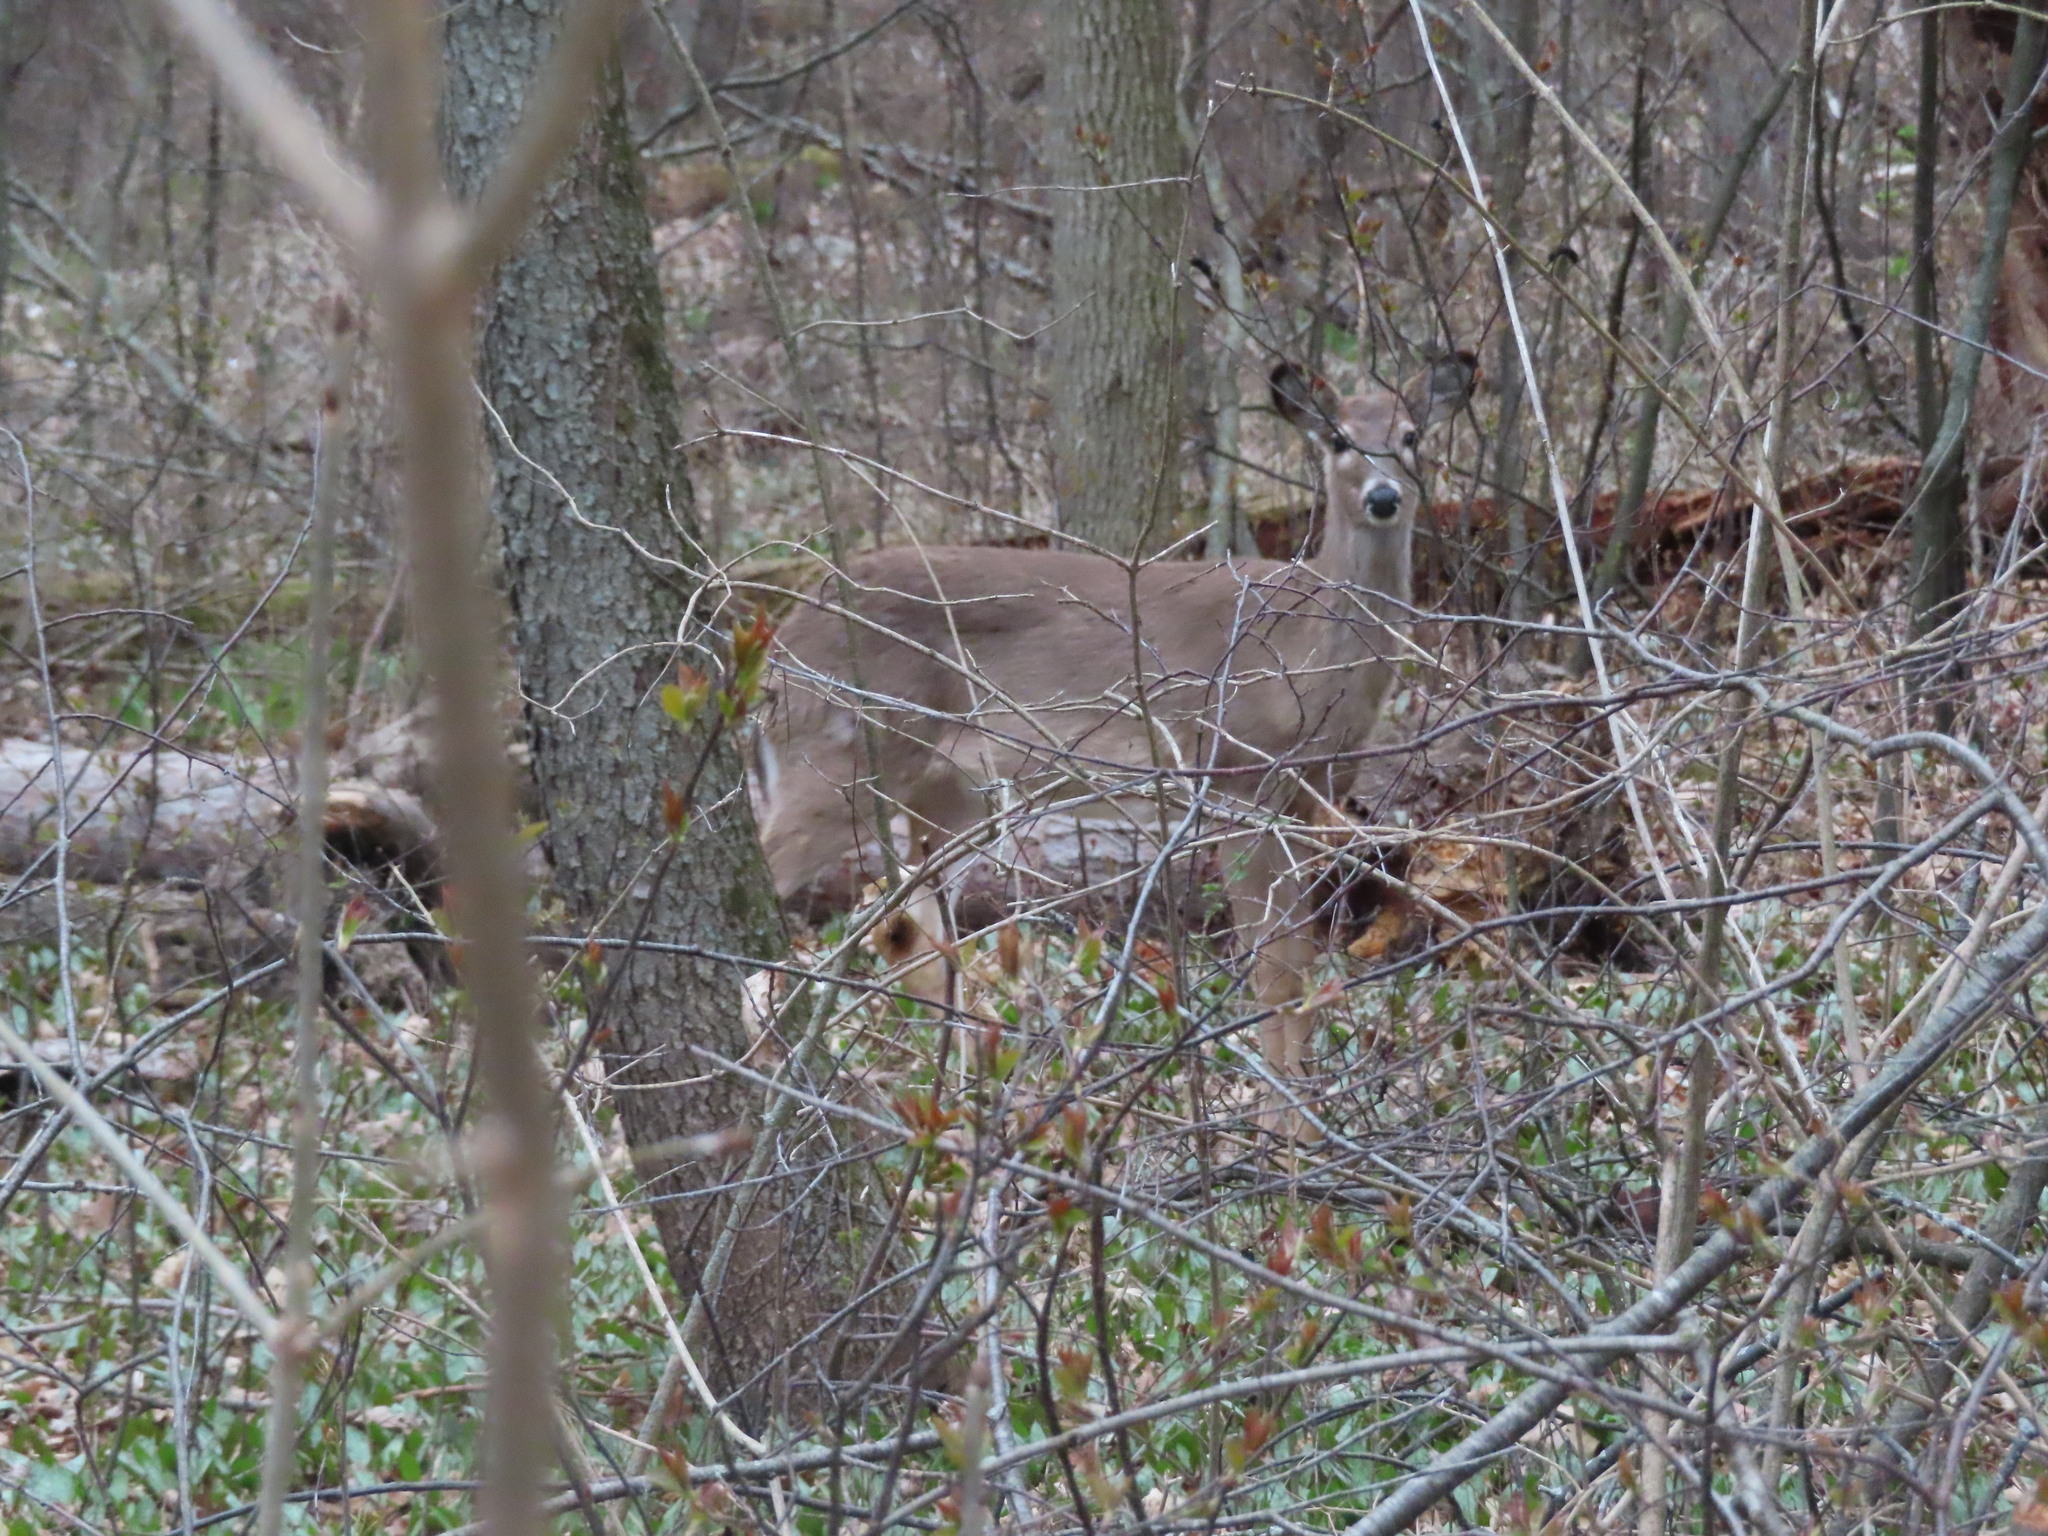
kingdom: Animalia
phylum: Chordata
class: Mammalia
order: Artiodactyla
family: Cervidae
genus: Odocoileus
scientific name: Odocoileus virginianus
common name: White-tailed deer
